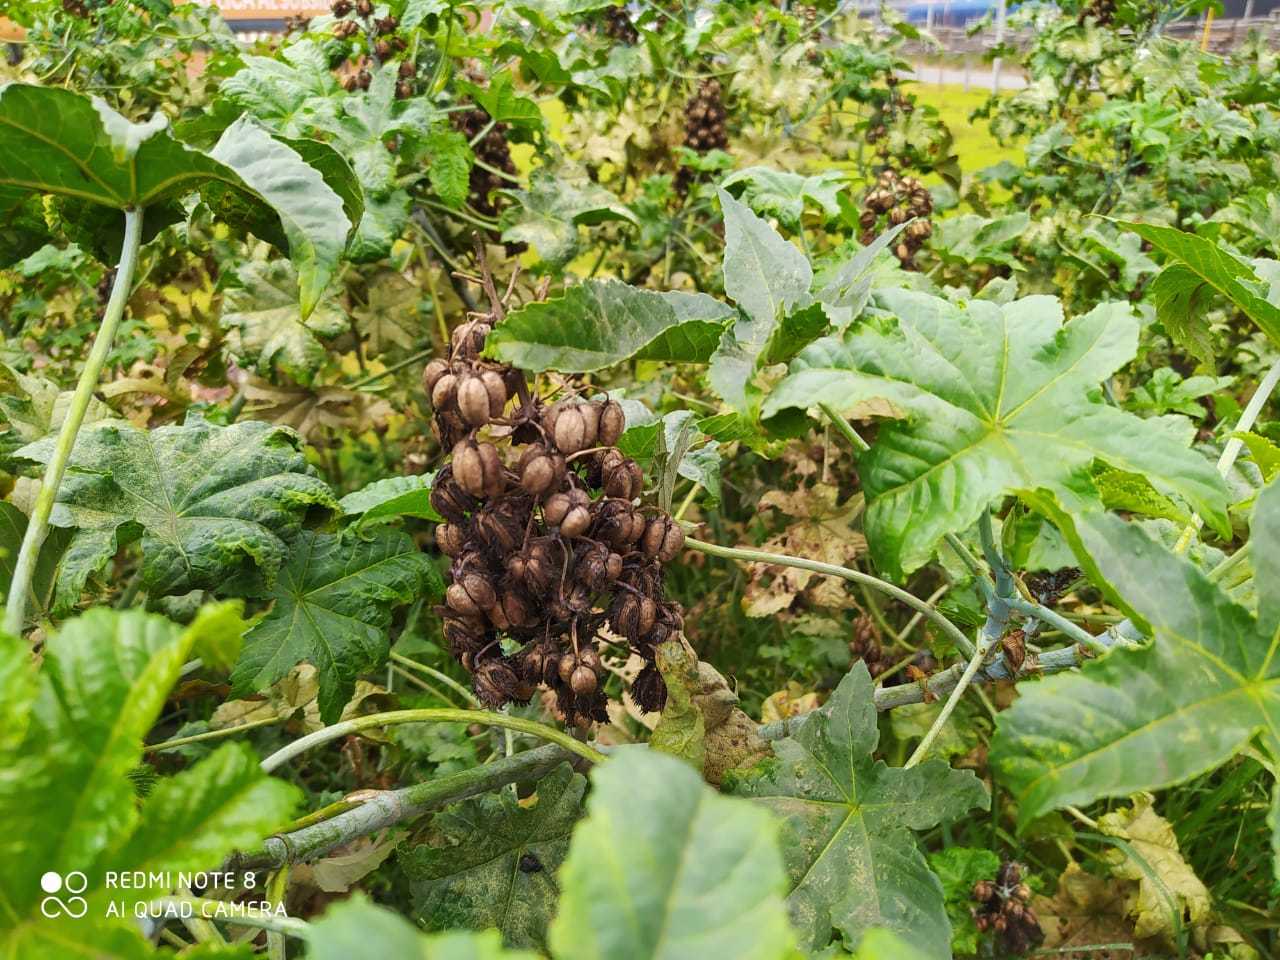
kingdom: Plantae
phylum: Tracheophyta
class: Magnoliopsida
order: Malpighiales
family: Euphorbiaceae
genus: Ricinus
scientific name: Ricinus communis
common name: Castor-oil-plant
